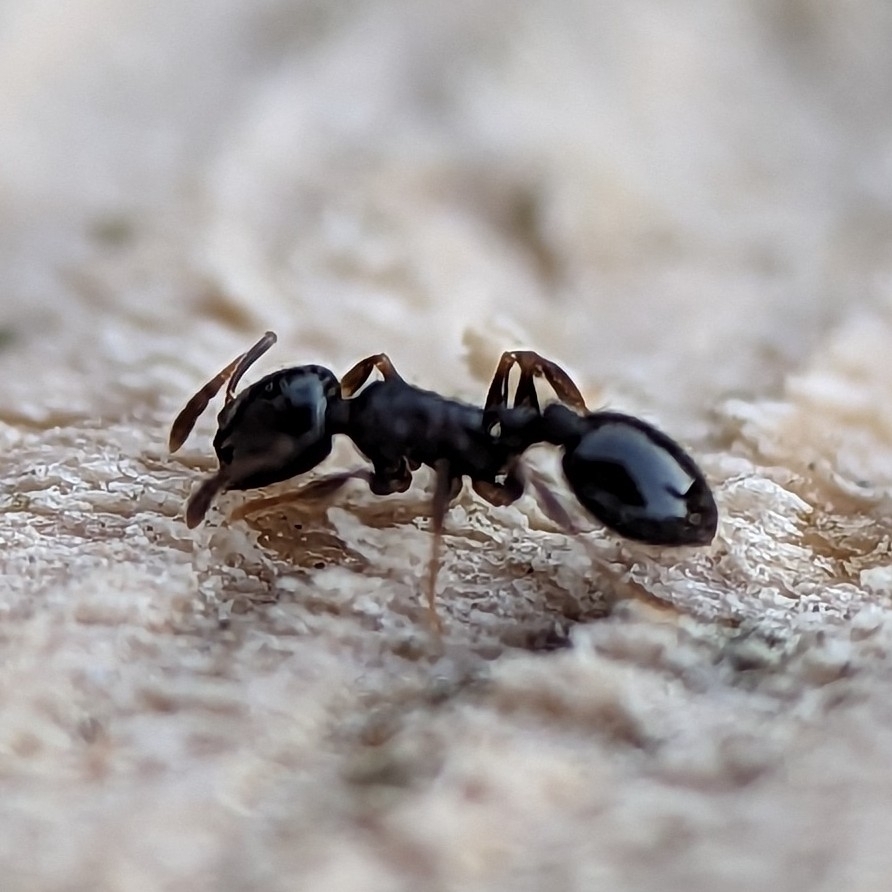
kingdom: Animalia
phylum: Arthropoda
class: Insecta
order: Hymenoptera
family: Formicidae
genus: Temnothorax
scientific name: Temnothorax longispinosus
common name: Long-spined acorn ant
